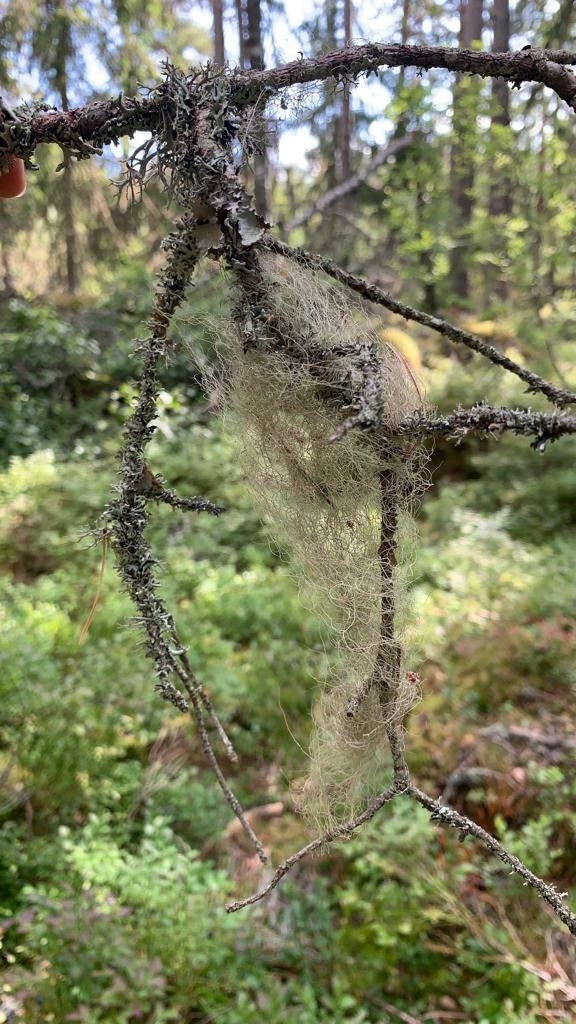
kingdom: Fungi
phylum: Ascomycota
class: Lecanoromycetes
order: Lecanorales
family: Parmeliaceae
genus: Bryoria
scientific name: Bryoria fuscescens
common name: Pale-footed horsehair lichen
